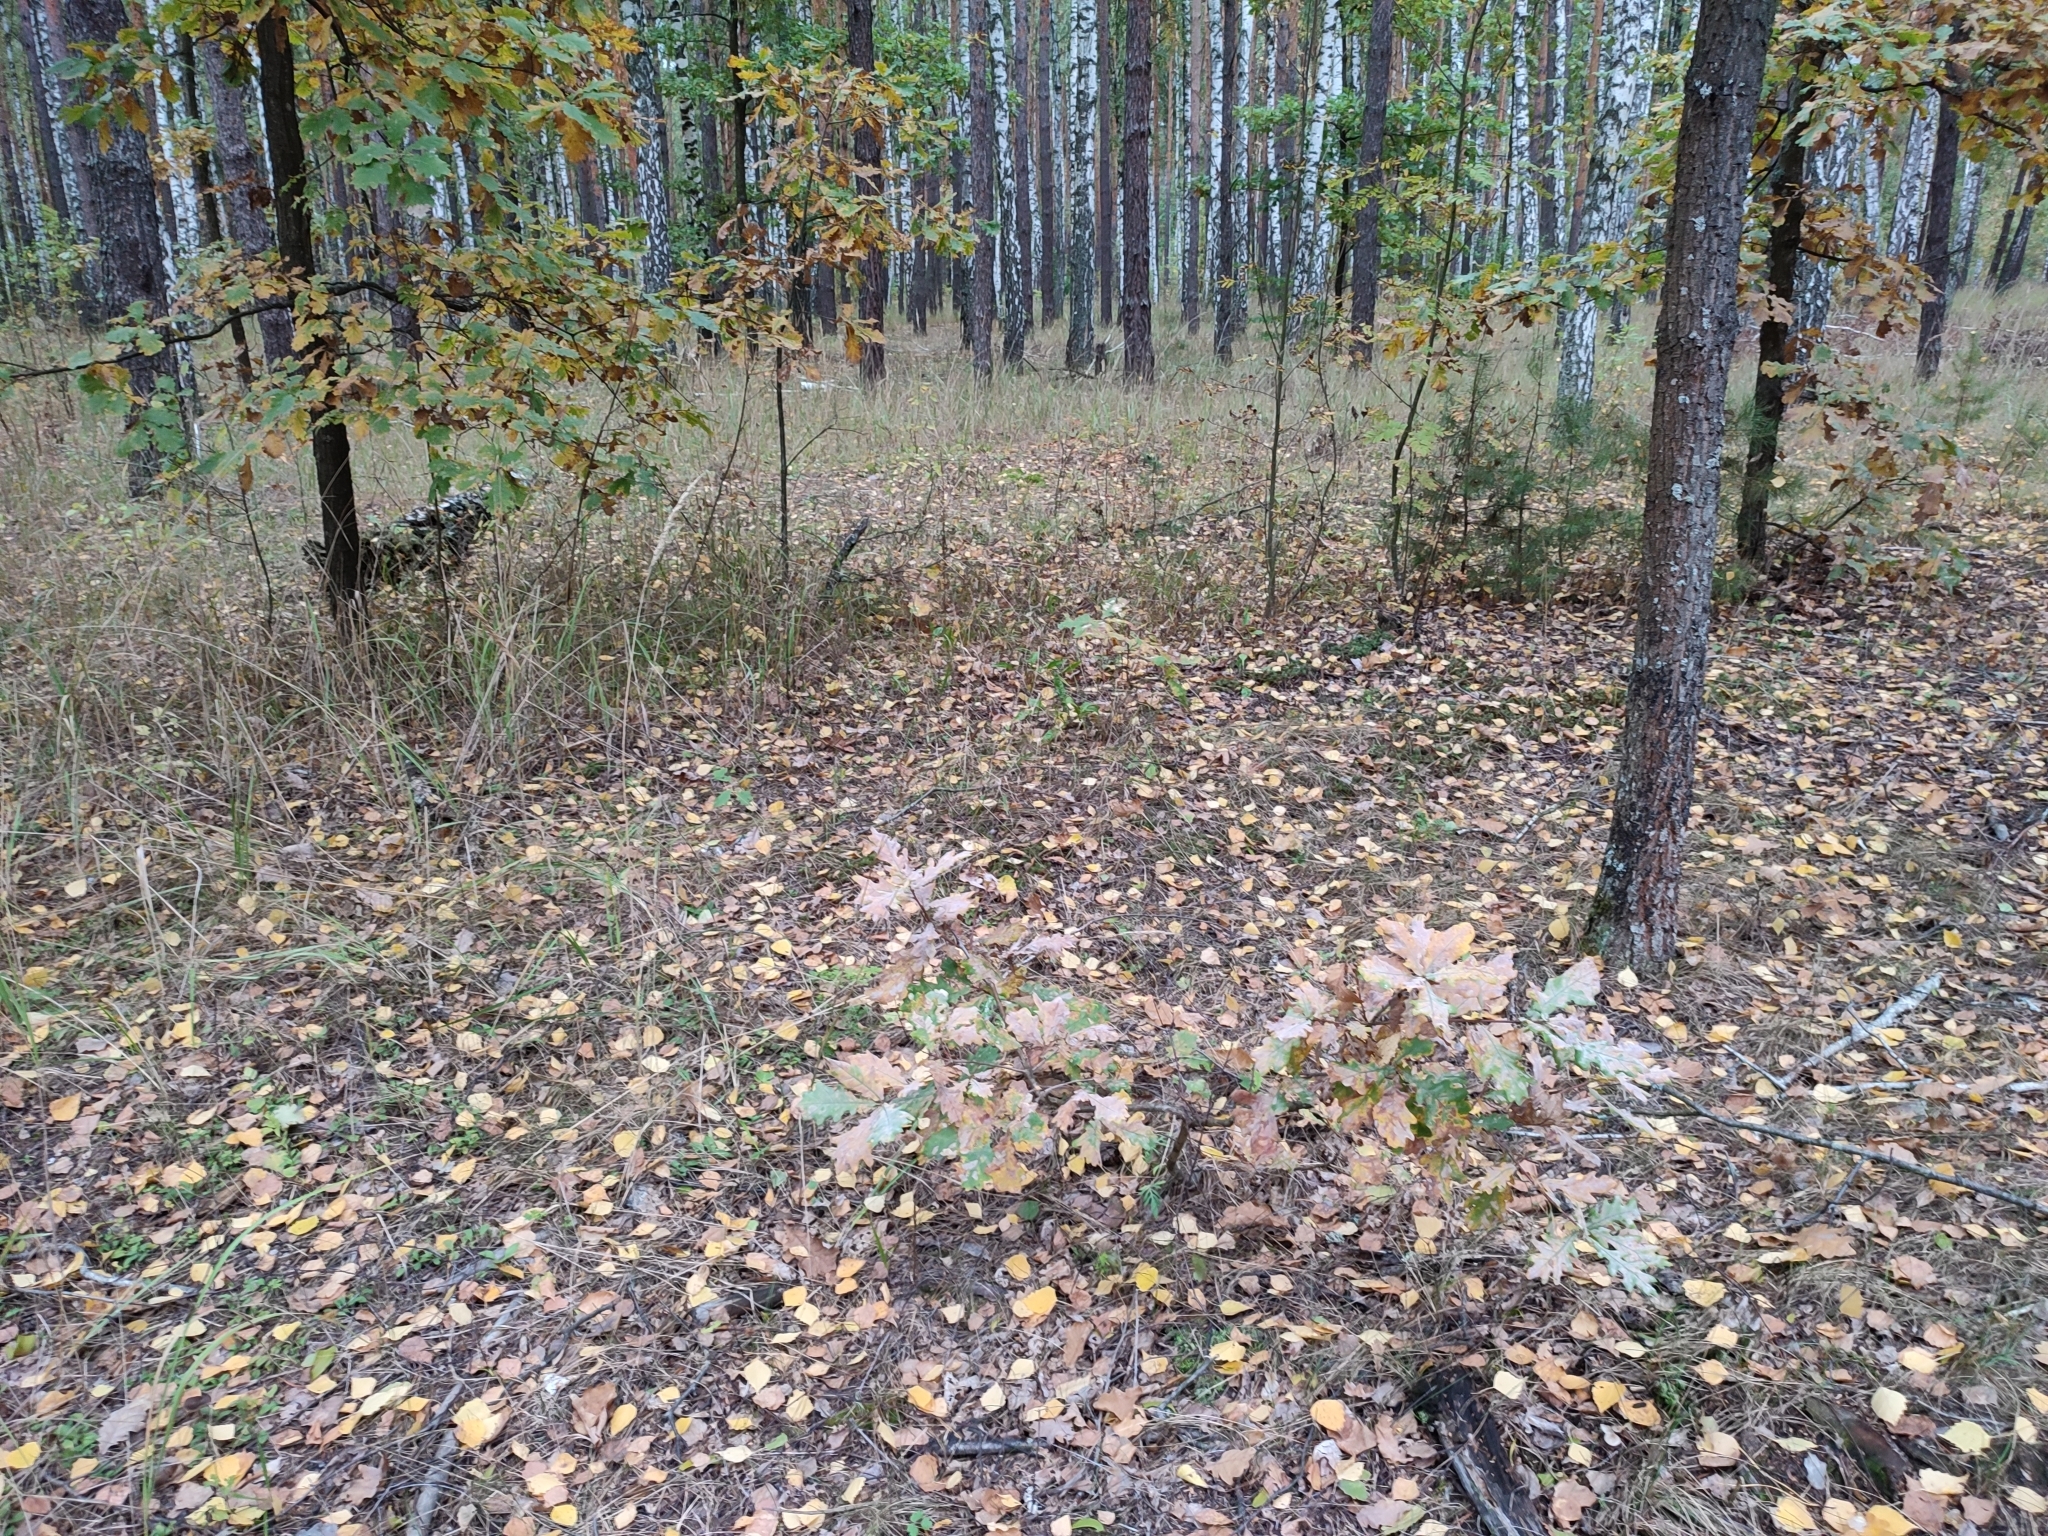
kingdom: Plantae
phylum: Tracheophyta
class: Magnoliopsida
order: Fagales
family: Fagaceae
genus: Quercus
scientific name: Quercus robur
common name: Pedunculate oak
